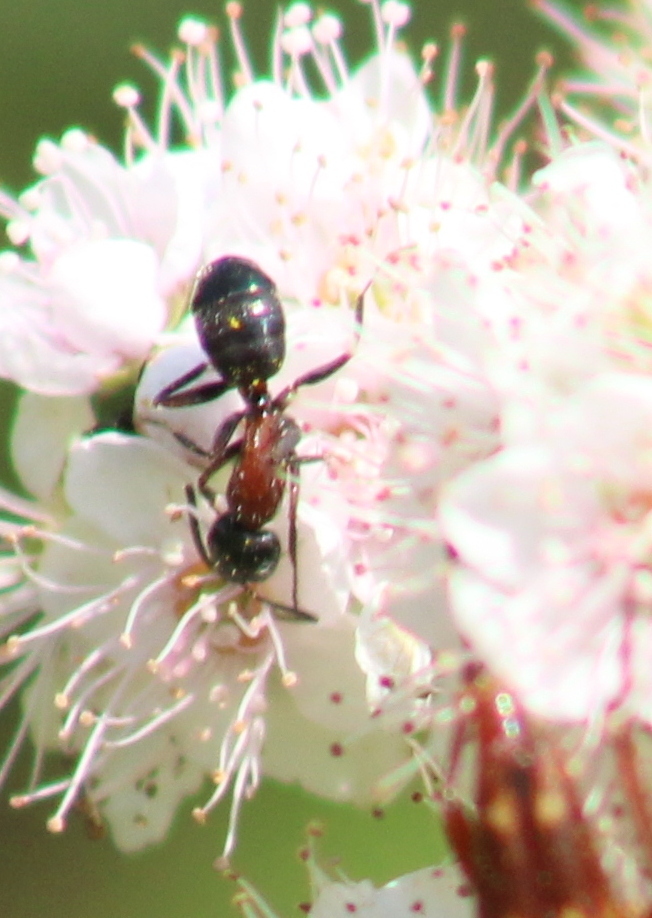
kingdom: Animalia
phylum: Arthropoda
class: Insecta
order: Hymenoptera
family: Formicidae
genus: Camponotus
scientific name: Camponotus novaeboracensis
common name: New york carpenter ant
